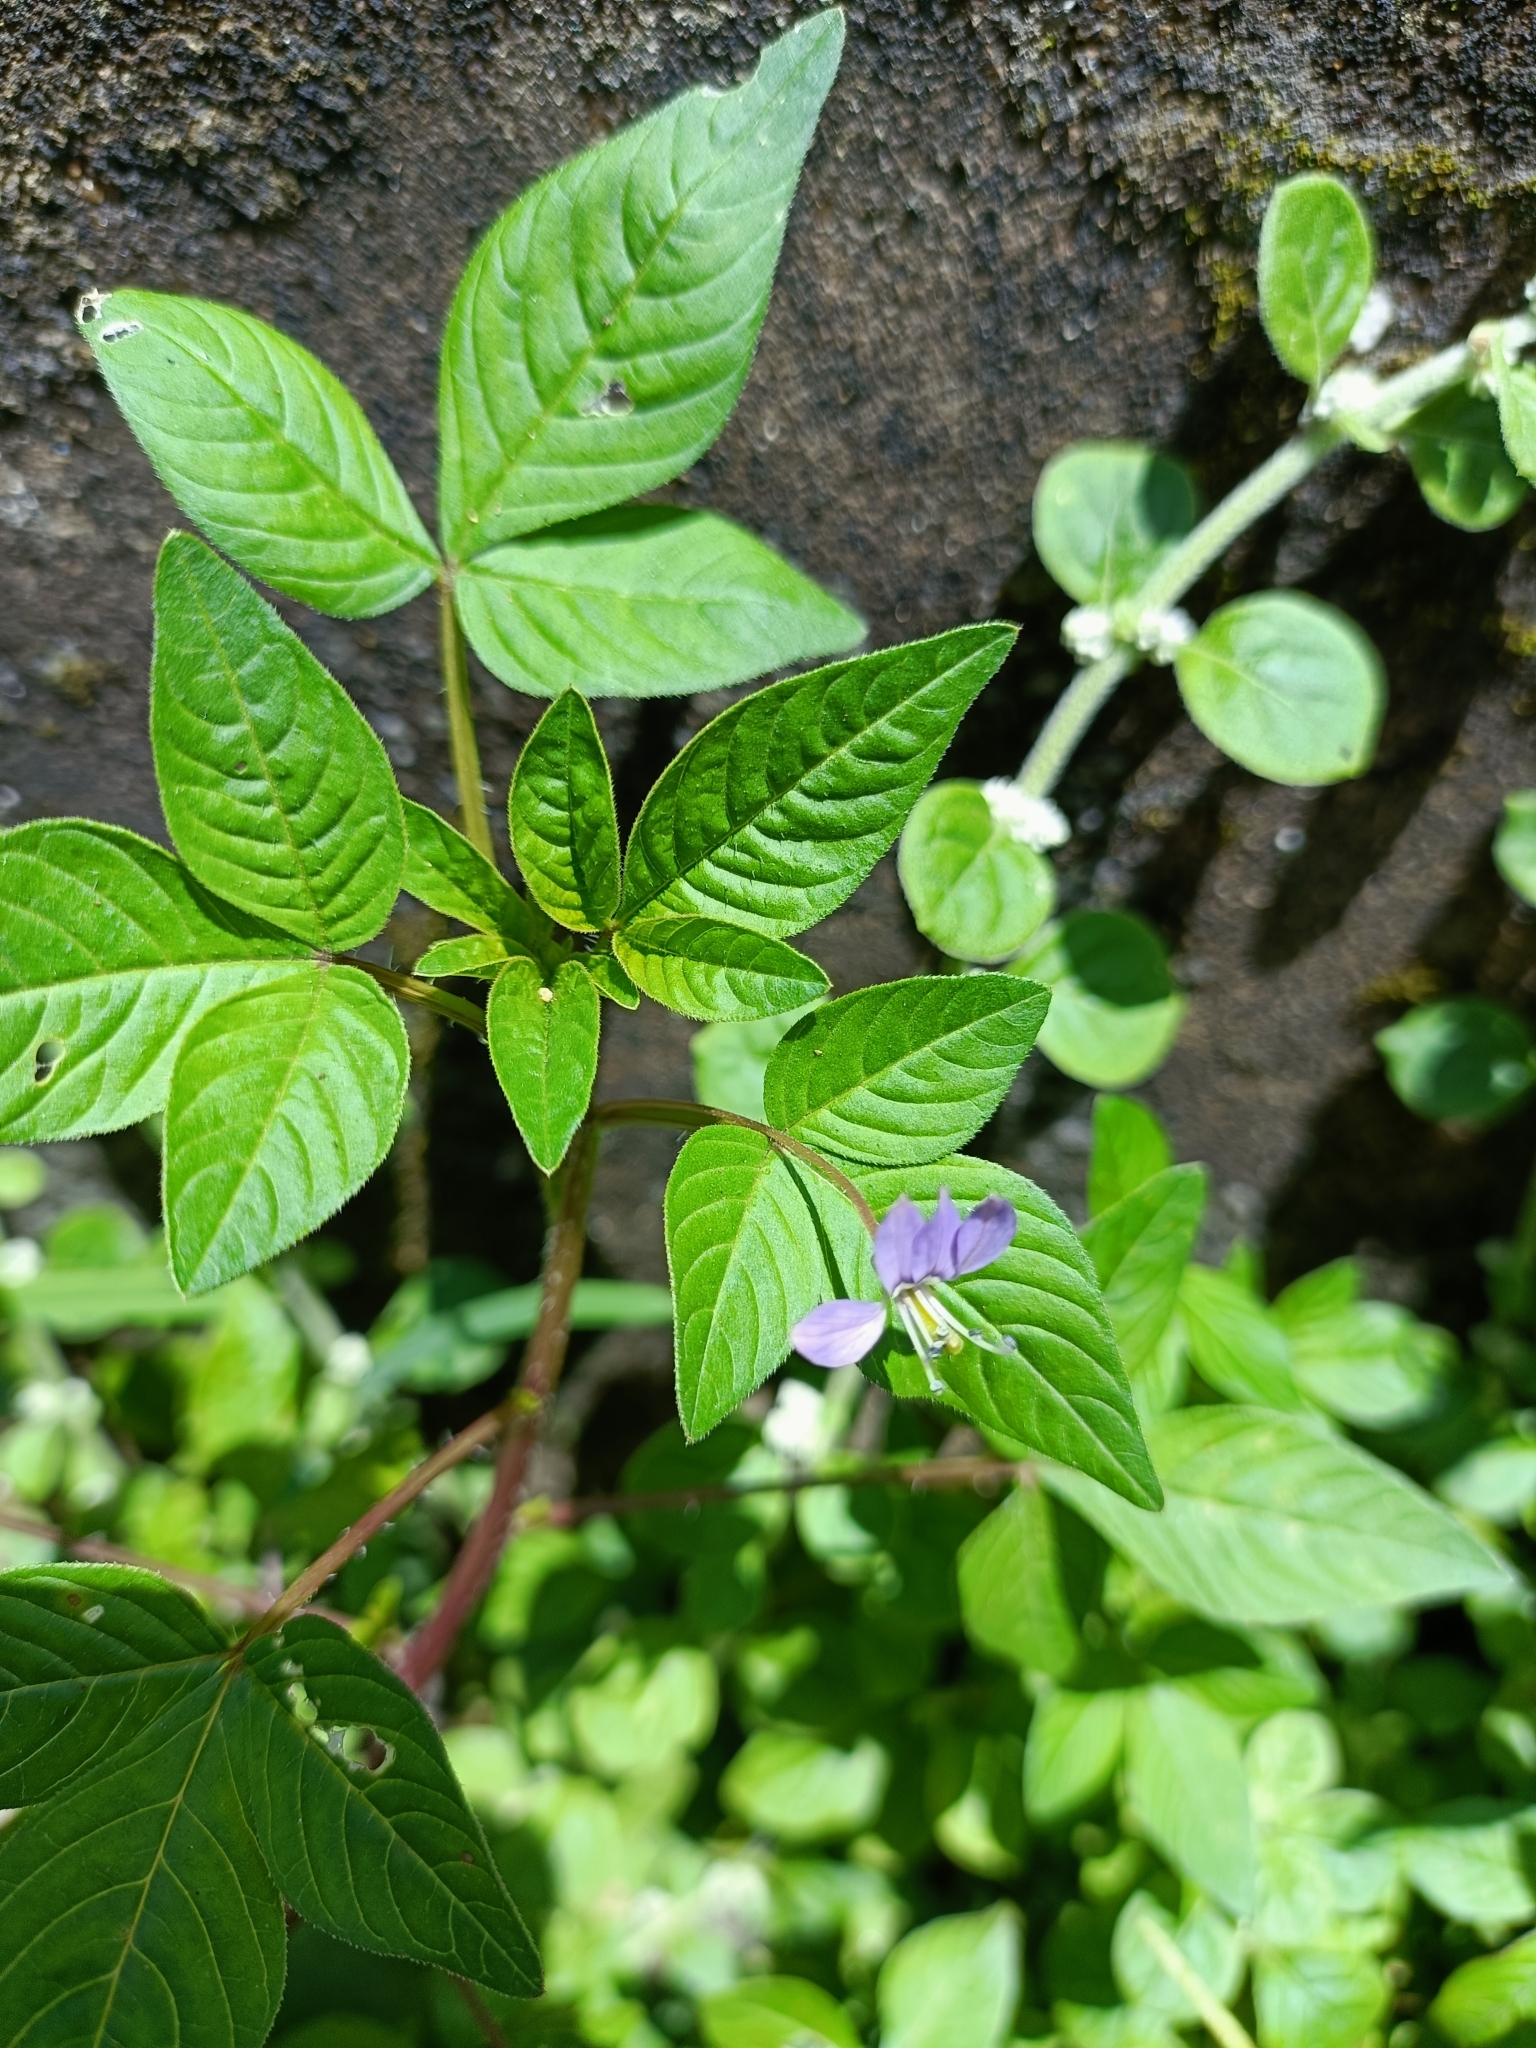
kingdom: Plantae
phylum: Tracheophyta
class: Magnoliopsida
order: Brassicales
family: Cleomaceae
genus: Sieruela
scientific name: Sieruela rutidosperma
